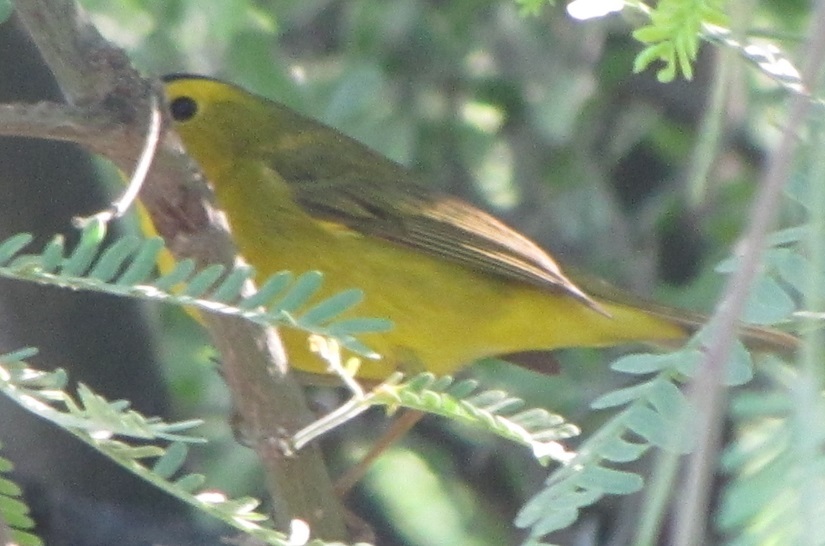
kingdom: Animalia
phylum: Chordata
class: Aves
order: Passeriformes
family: Parulidae
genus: Cardellina
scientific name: Cardellina pusilla
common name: Wilson's warbler
